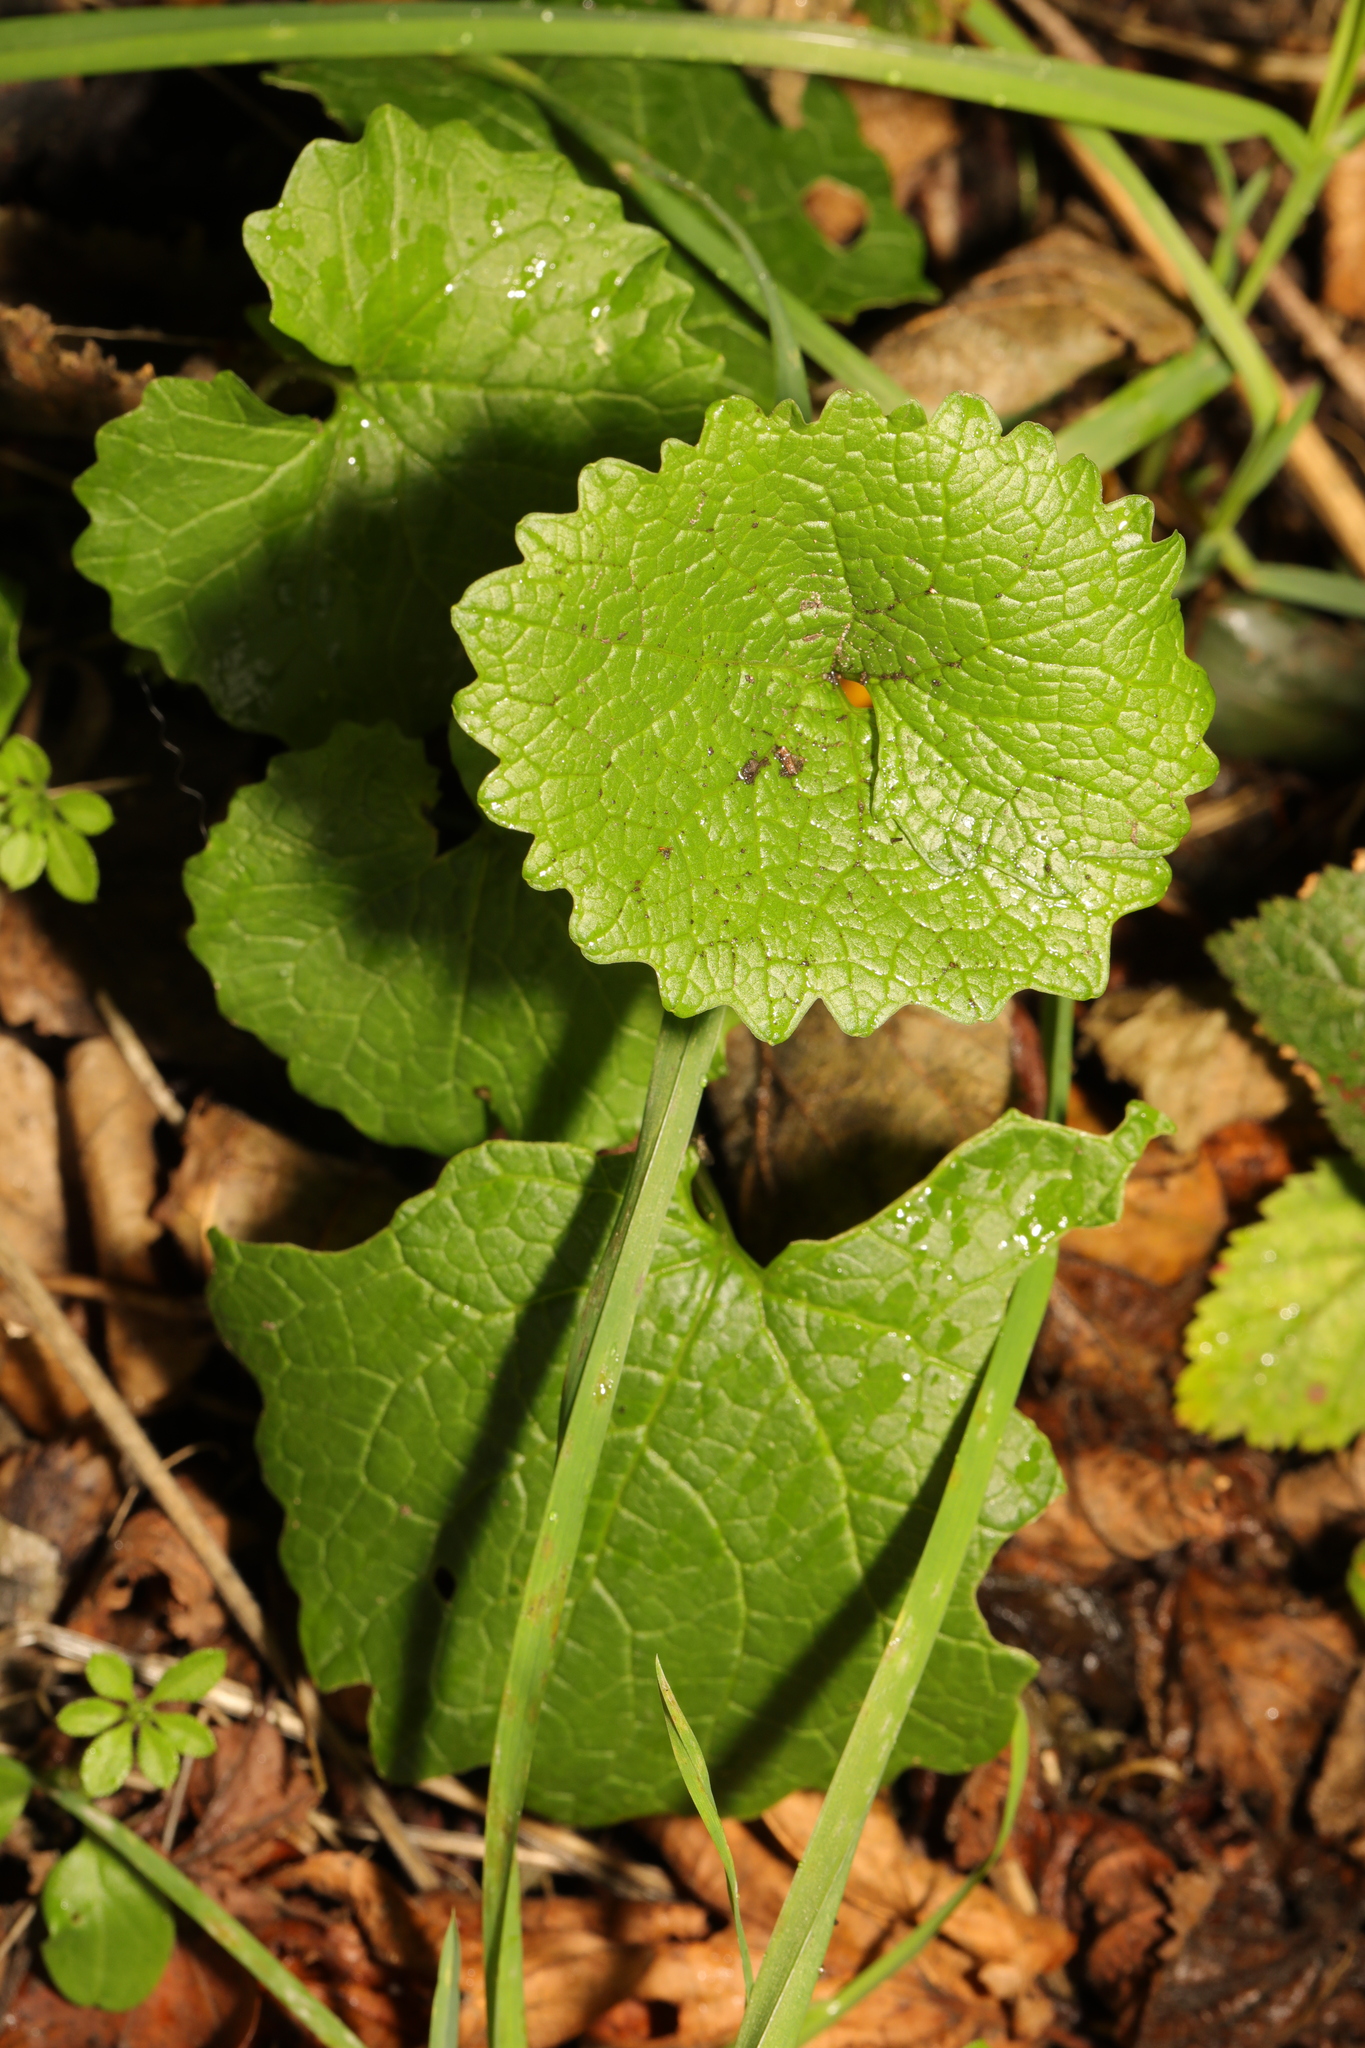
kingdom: Plantae
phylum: Tracheophyta
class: Magnoliopsida
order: Brassicales
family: Brassicaceae
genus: Alliaria
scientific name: Alliaria petiolata
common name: Garlic mustard
